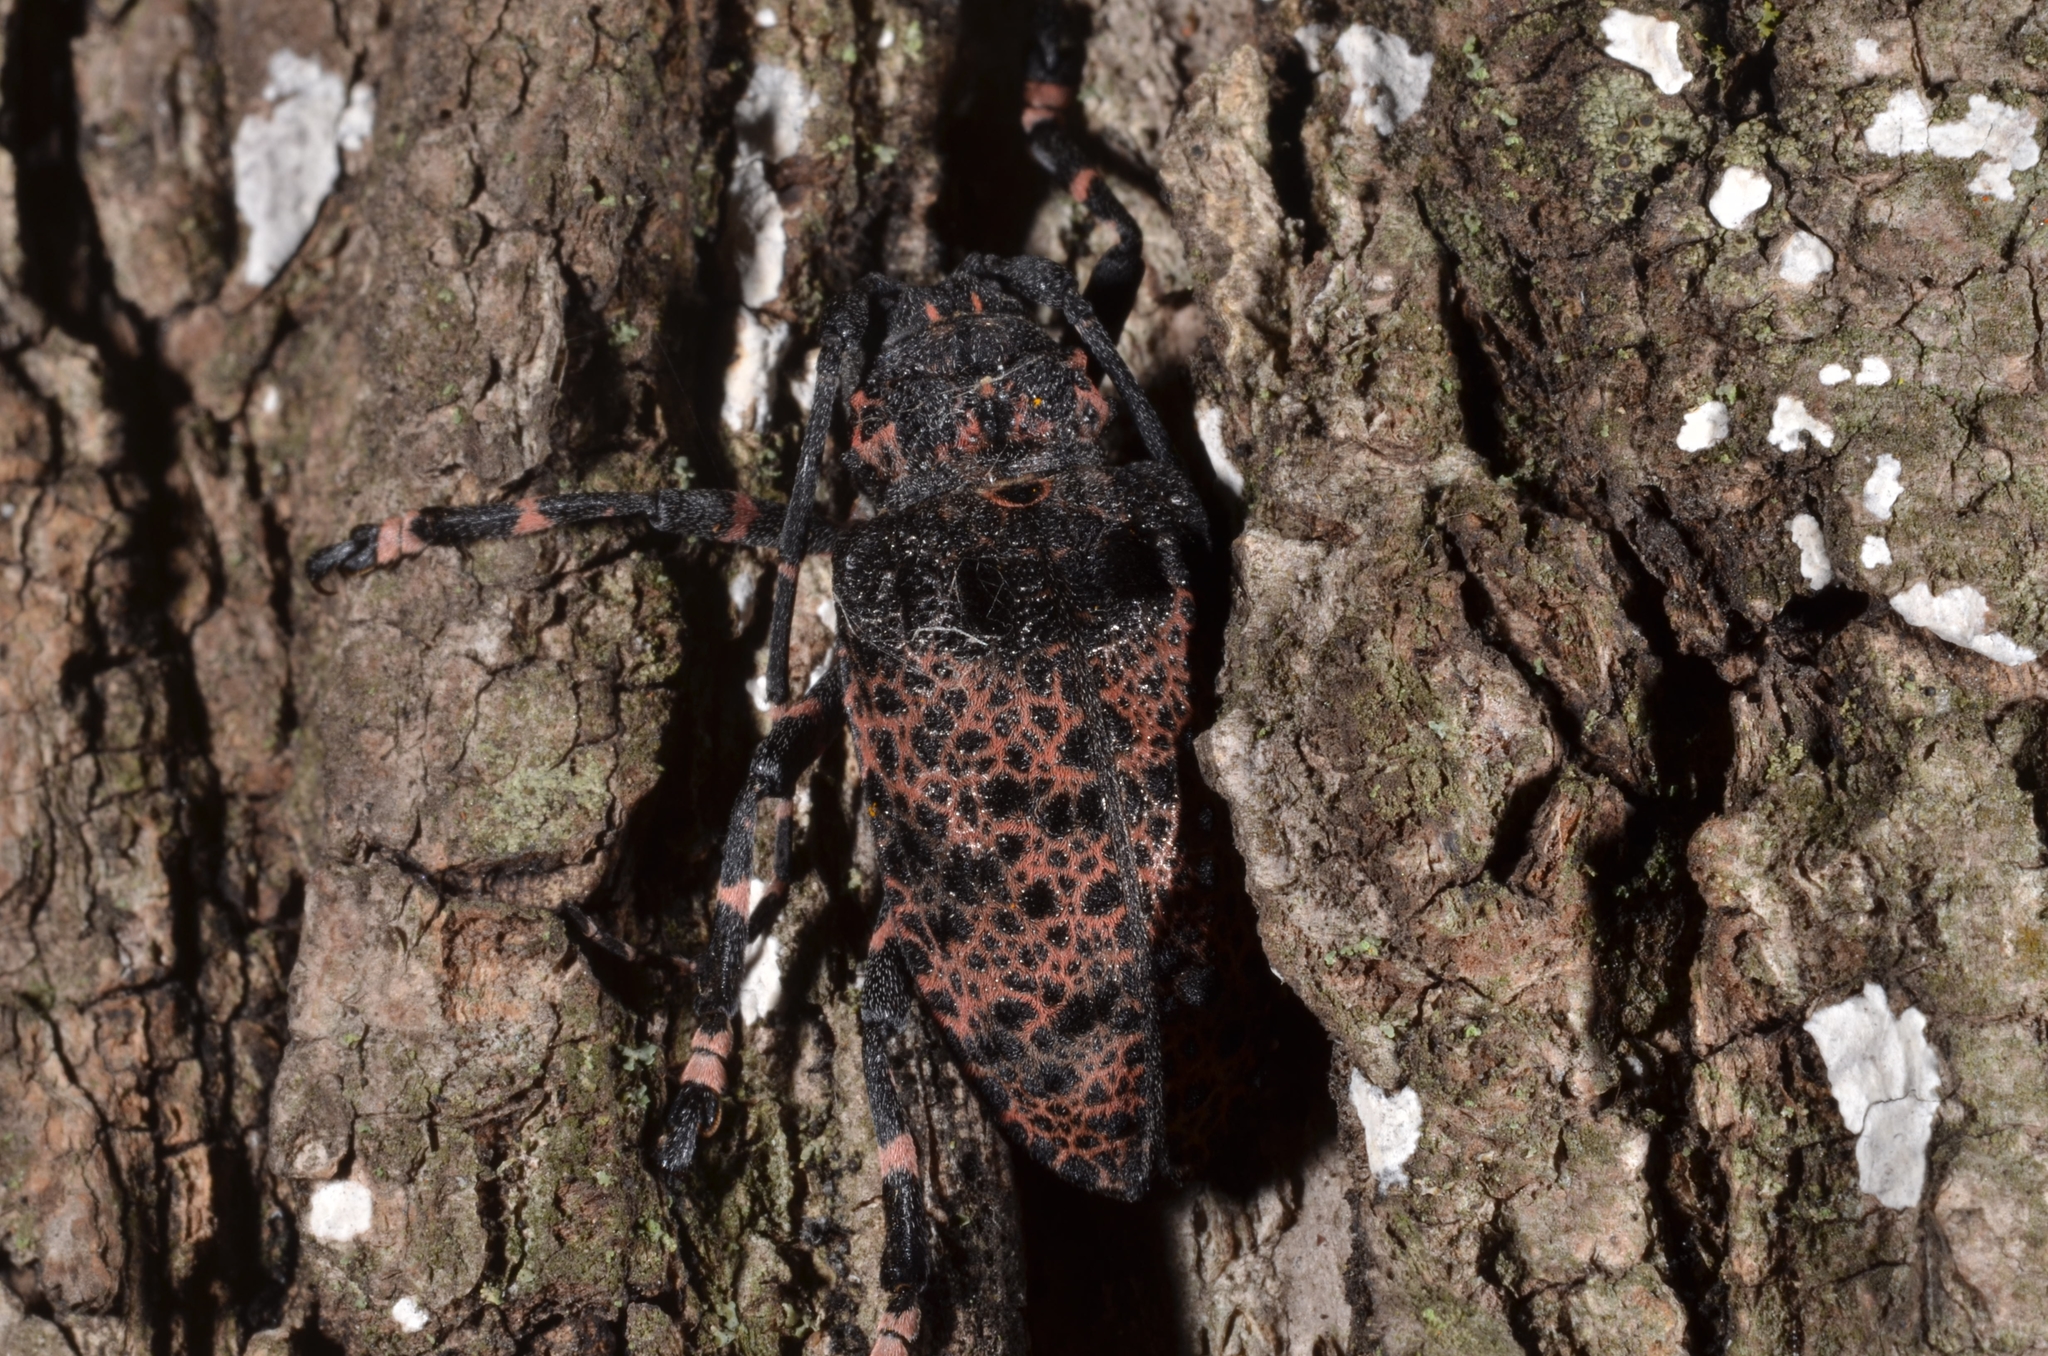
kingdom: Animalia
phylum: Arthropoda
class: Insecta
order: Coleoptera
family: Cerambycidae
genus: Moechotypa
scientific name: Moechotypa diphysis
